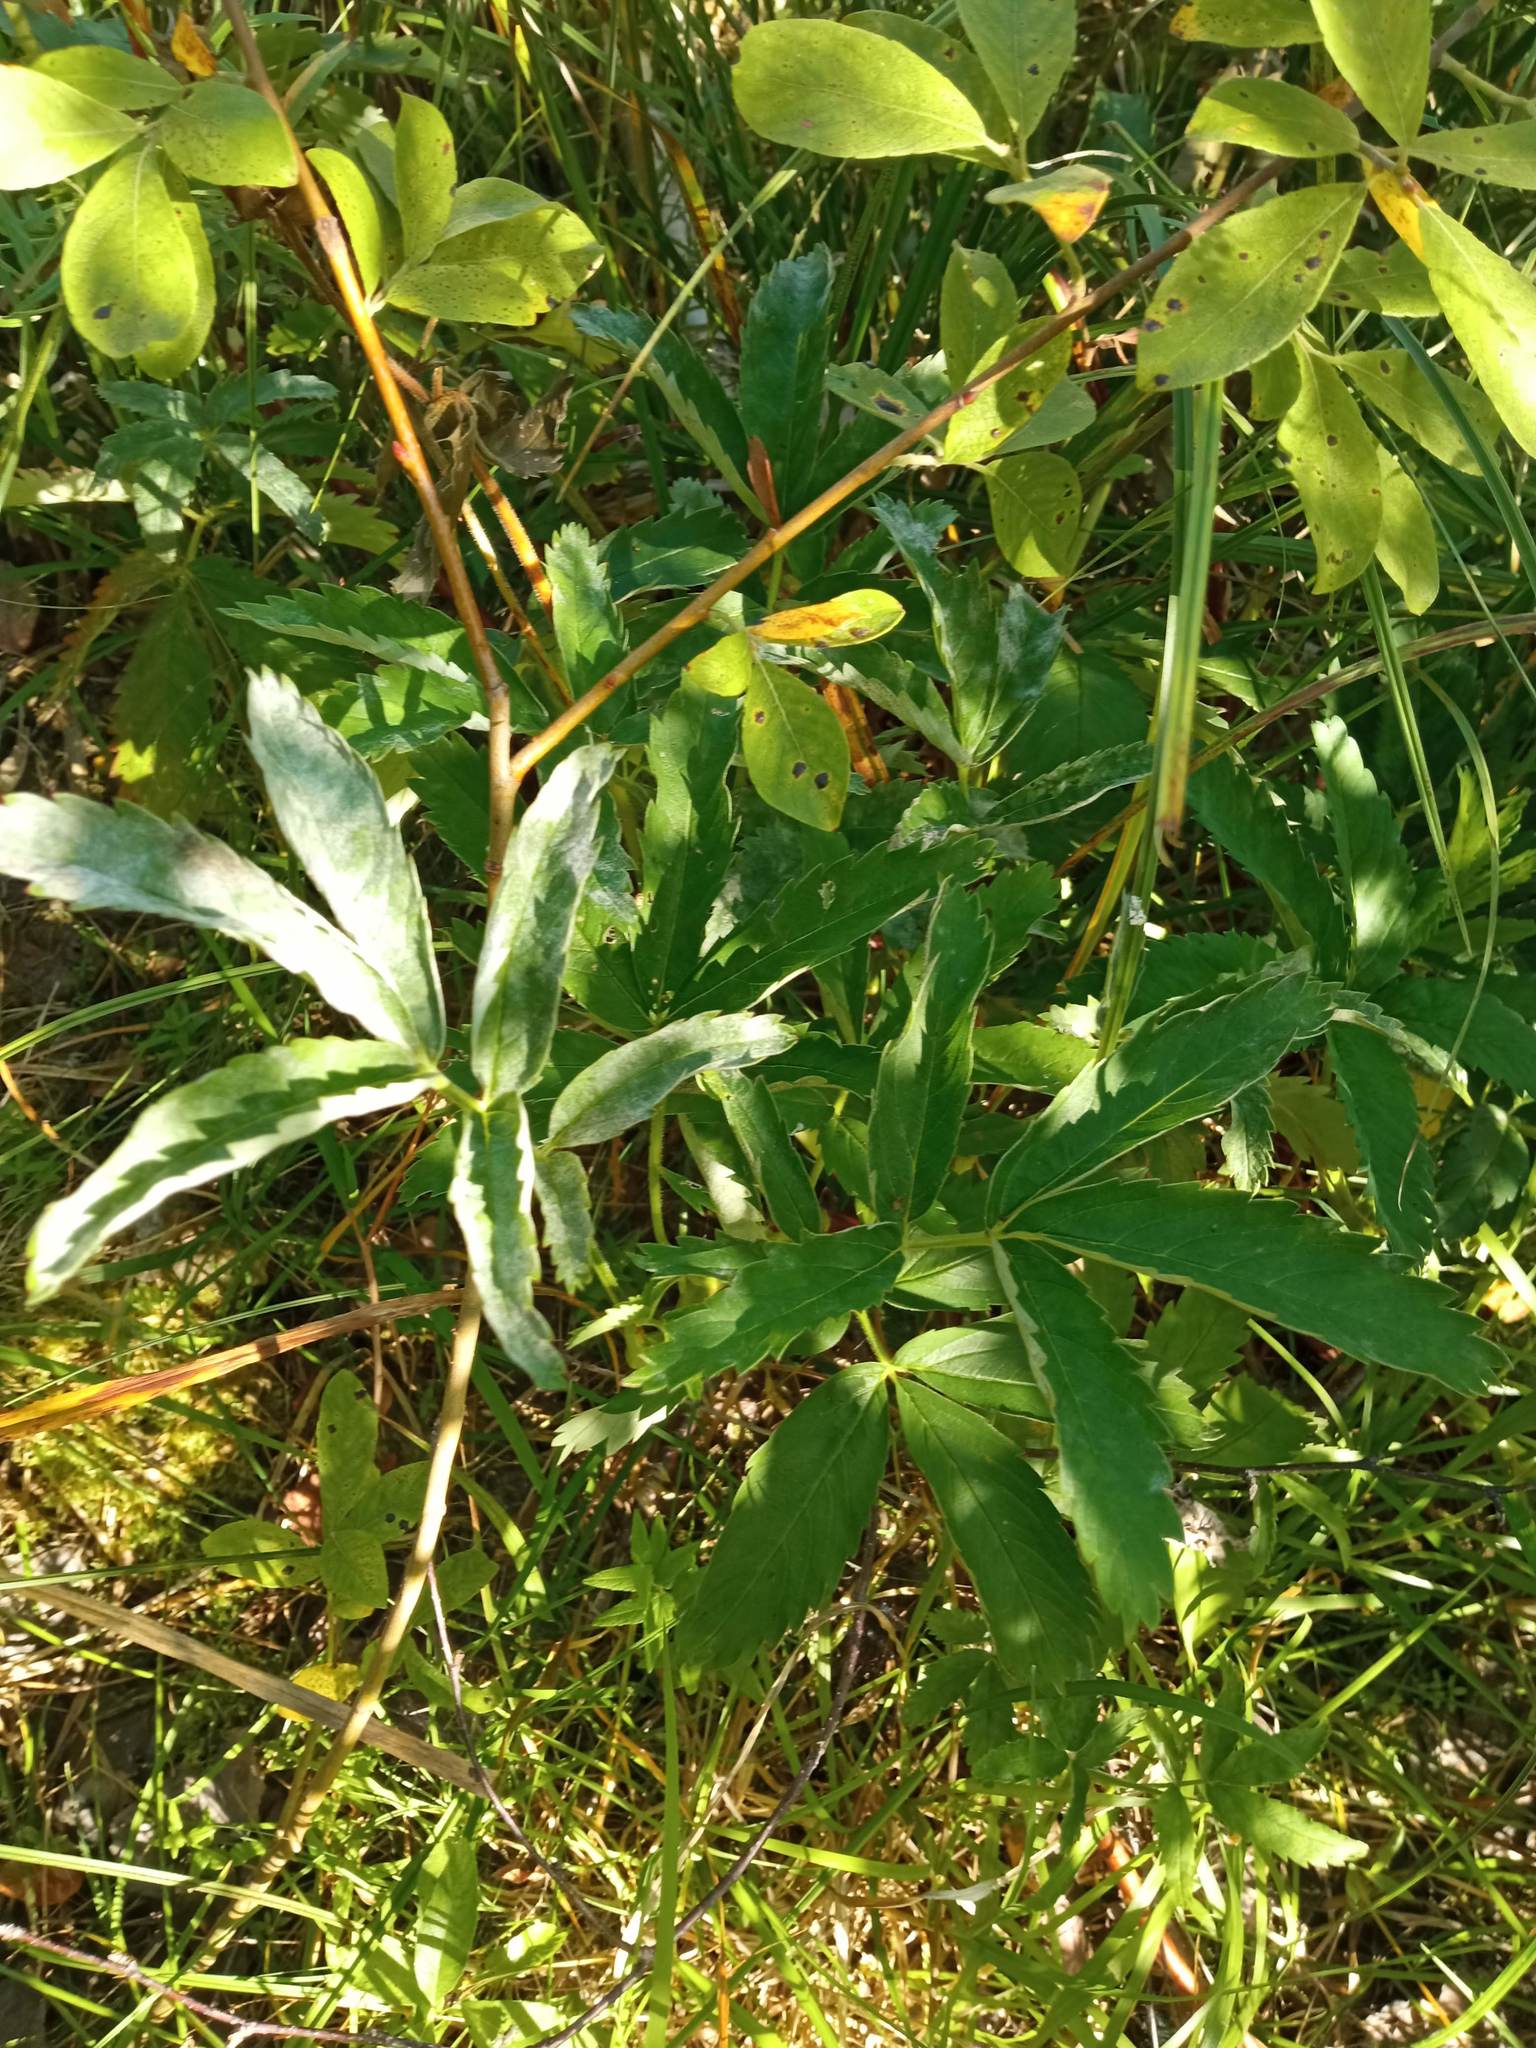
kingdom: Plantae
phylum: Tracheophyta
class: Magnoliopsida
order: Rosales
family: Rosaceae
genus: Comarum
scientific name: Comarum palustre
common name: Marsh cinquefoil
